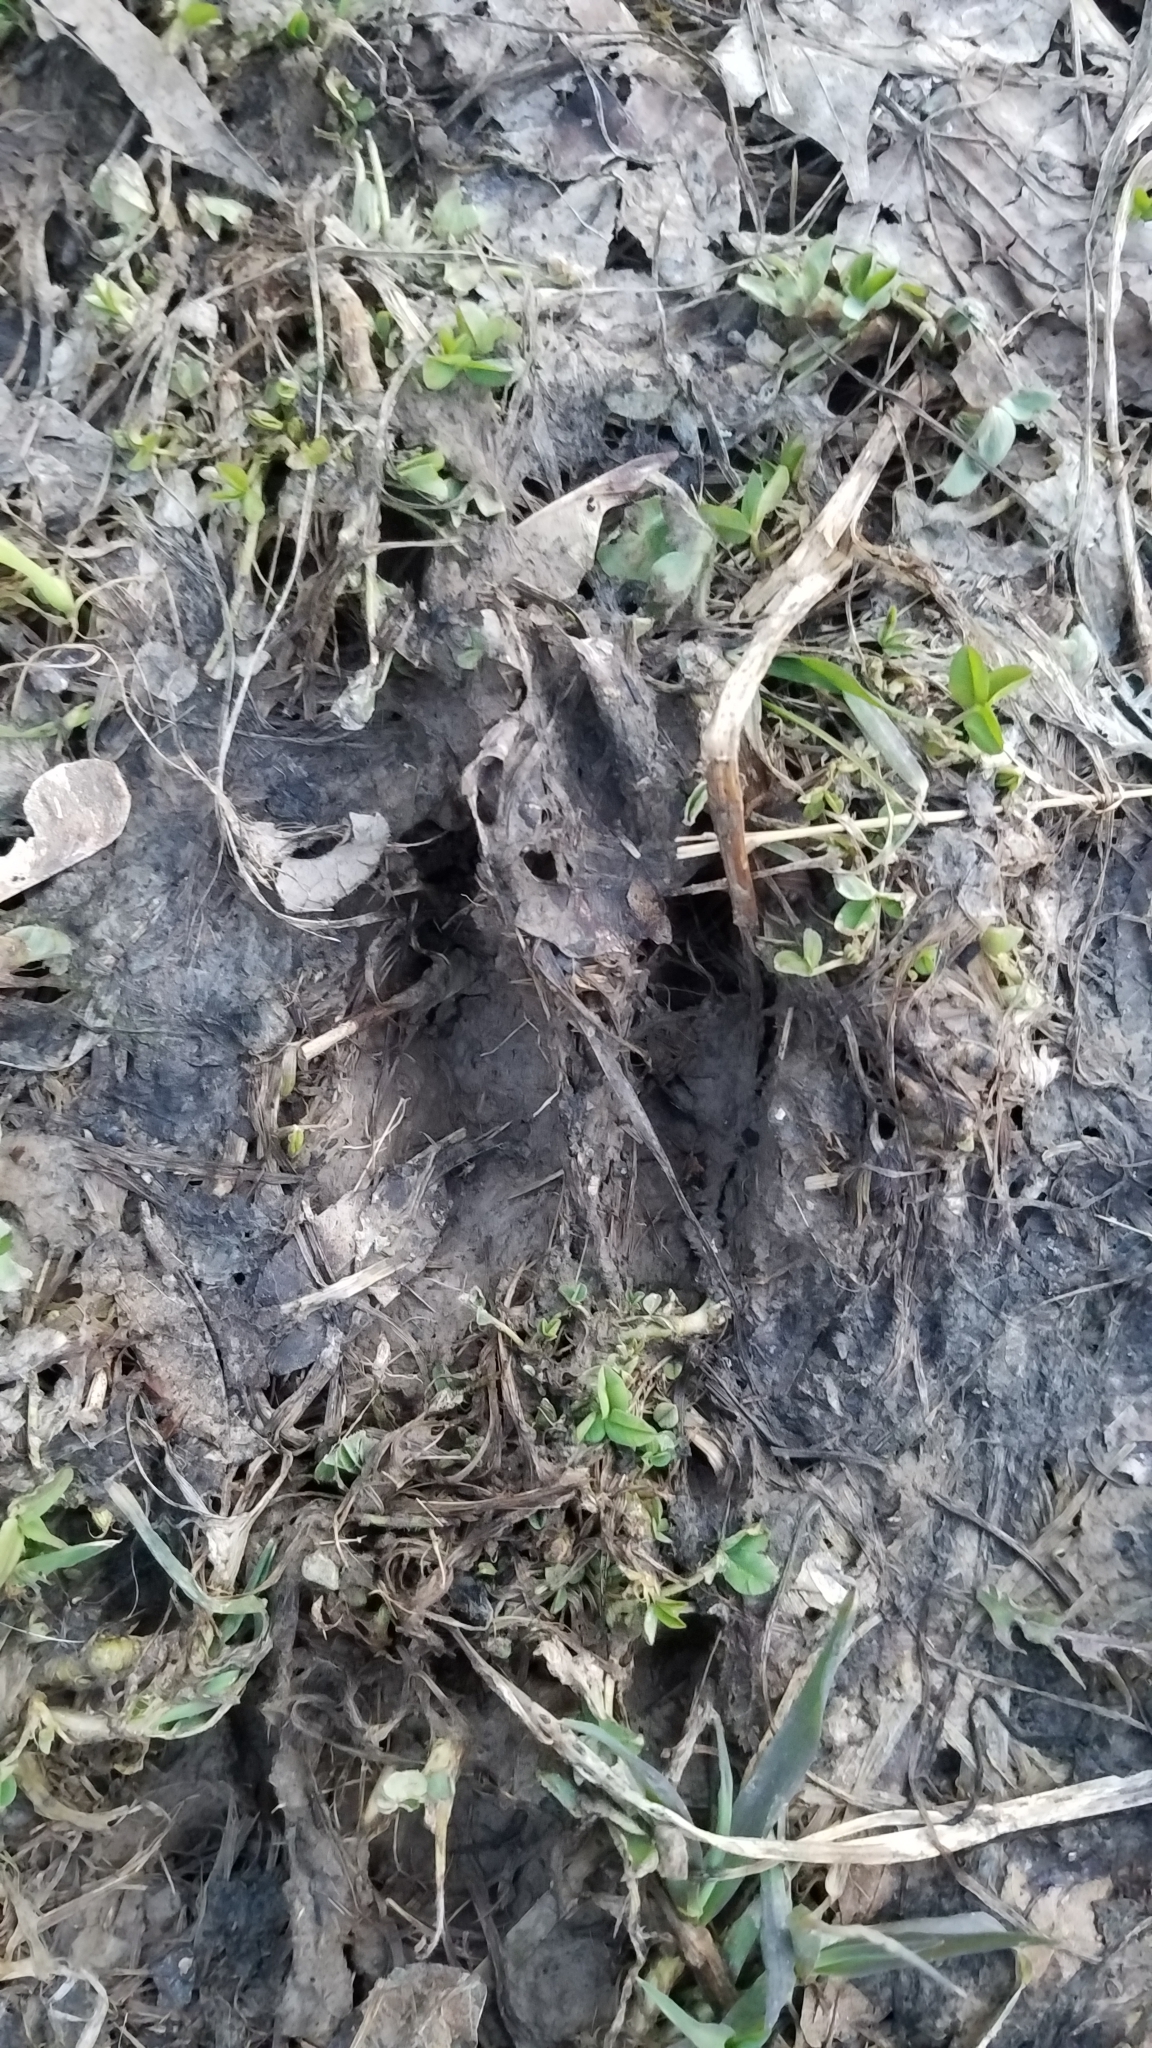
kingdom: Animalia
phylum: Chordata
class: Mammalia
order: Artiodactyla
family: Cervidae
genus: Odocoileus
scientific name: Odocoileus virginianus
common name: White-tailed deer
